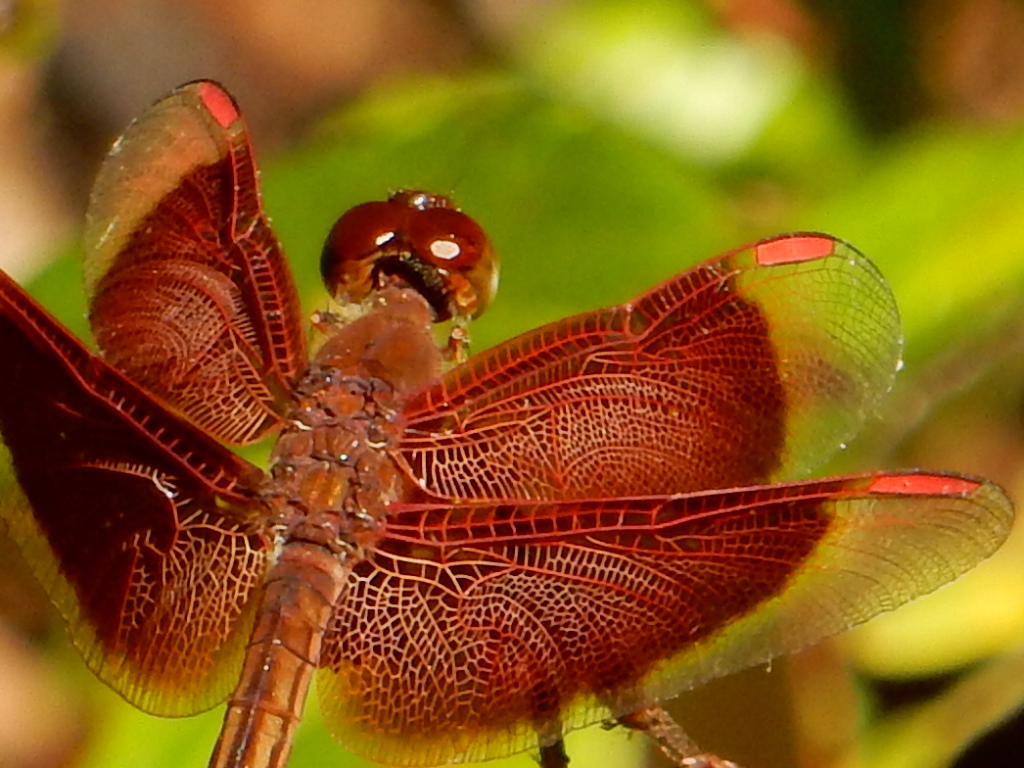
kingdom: Animalia
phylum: Arthropoda
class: Insecta
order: Odonata
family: Libellulidae
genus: Neurothemis
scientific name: Neurothemis stigmatizans
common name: Painted grasshawk
